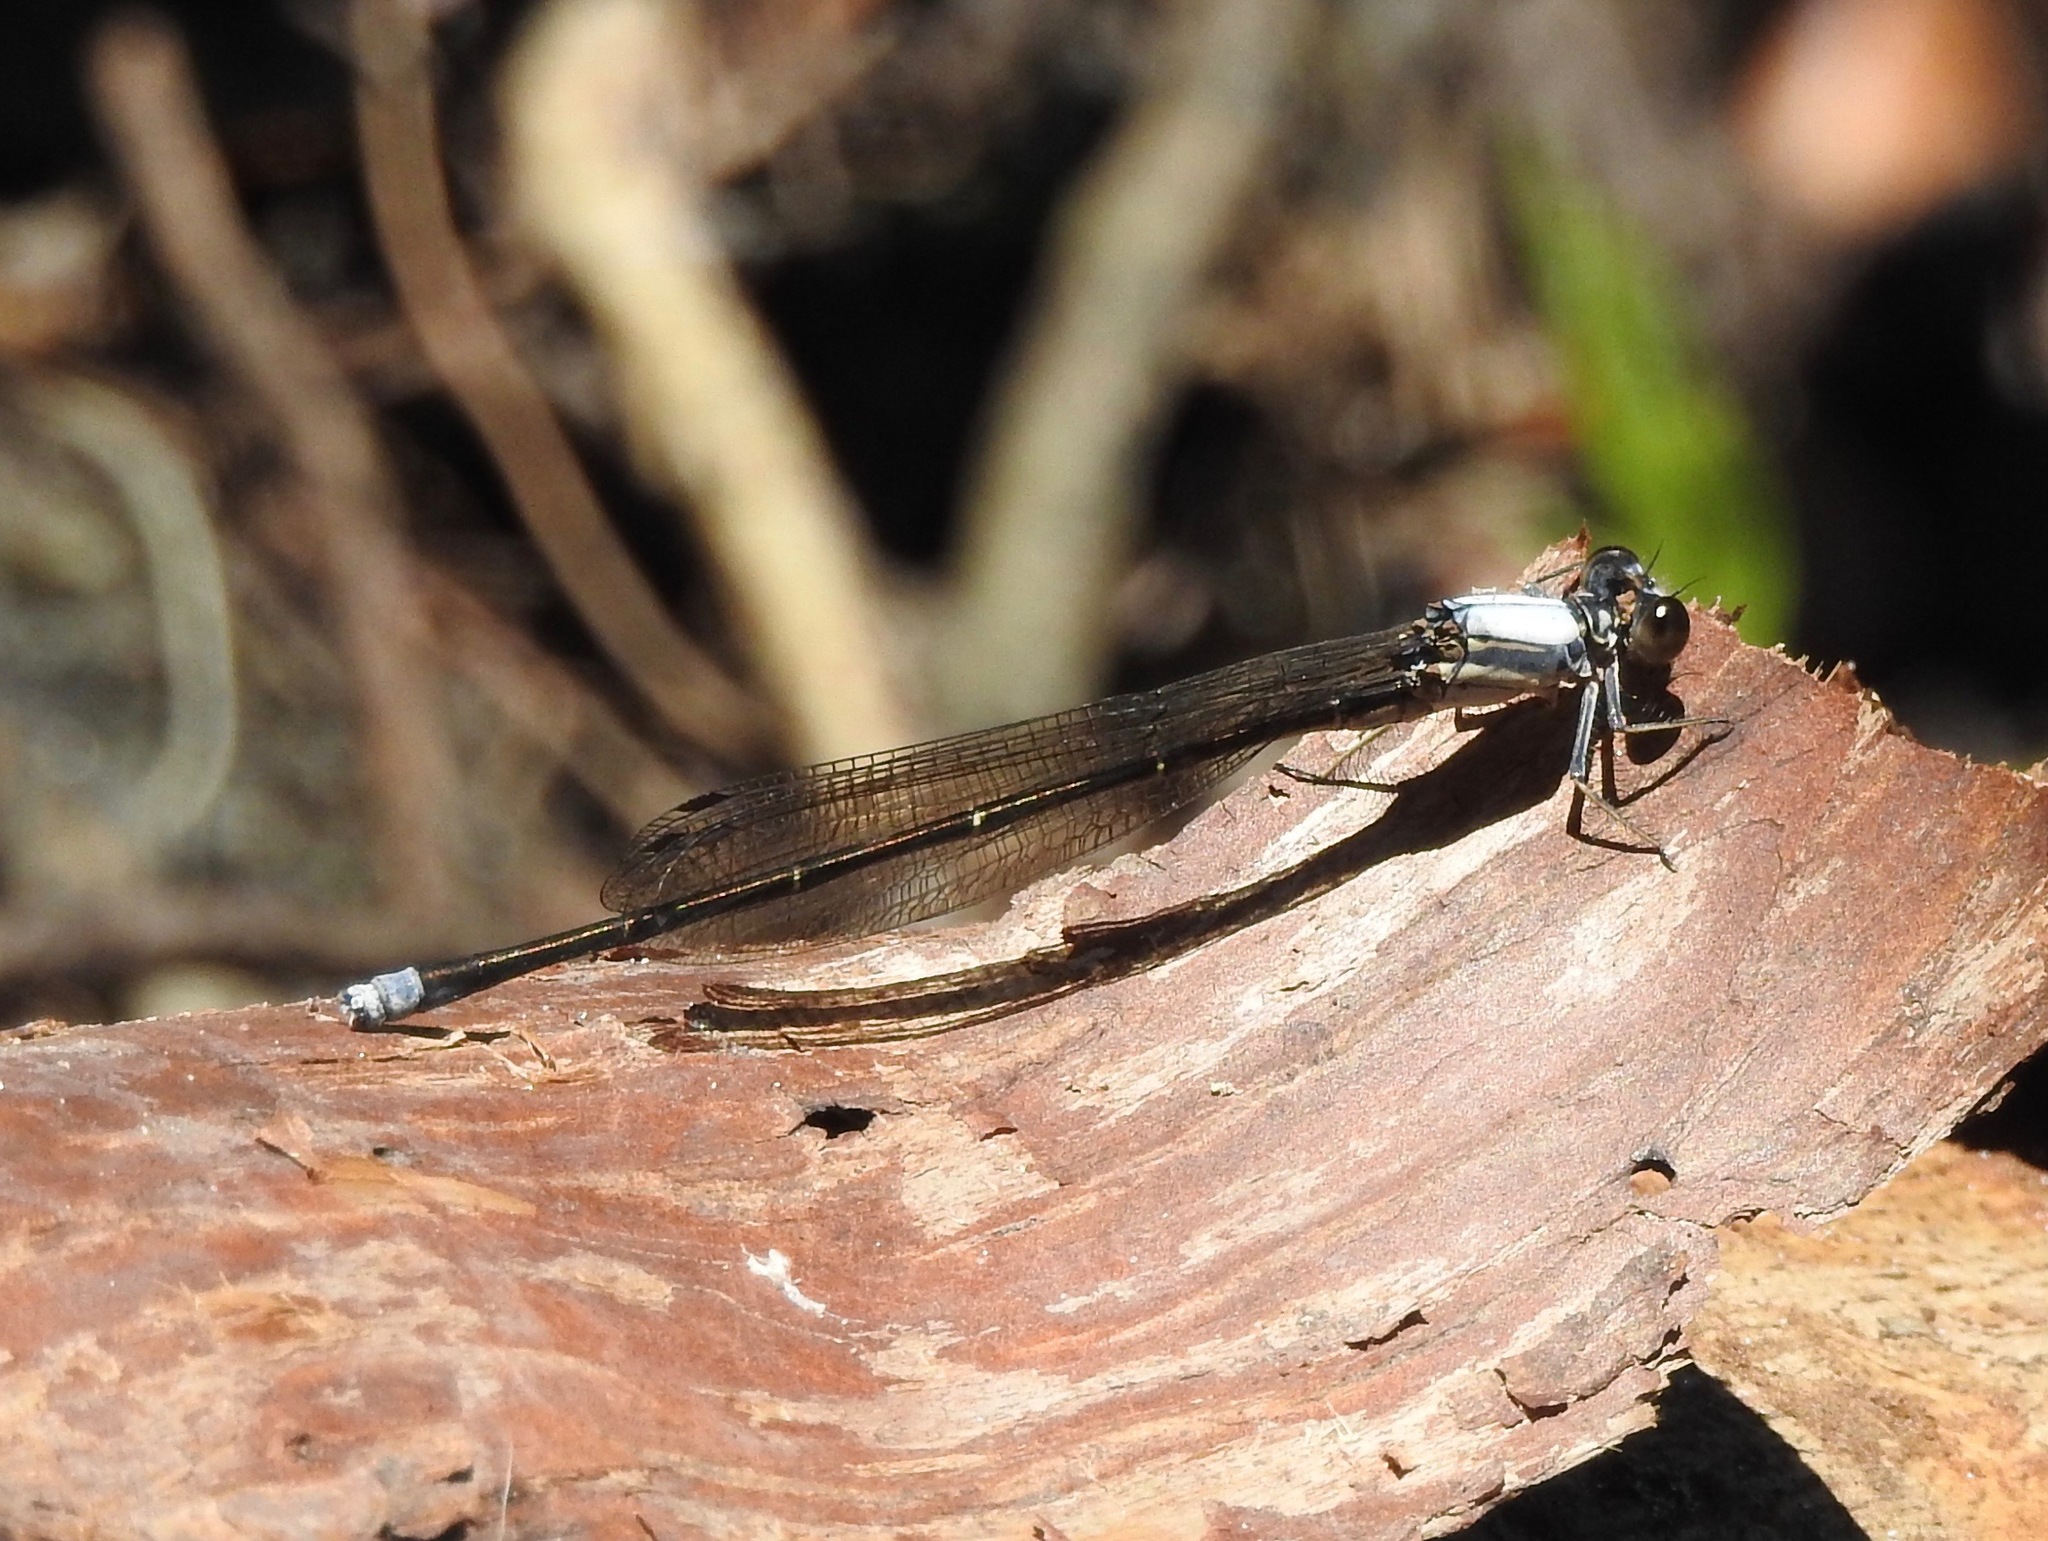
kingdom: Animalia
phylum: Arthropoda
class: Insecta
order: Odonata
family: Coenagrionidae
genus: Argia
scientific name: Argia moesta
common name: Powdered dancer
